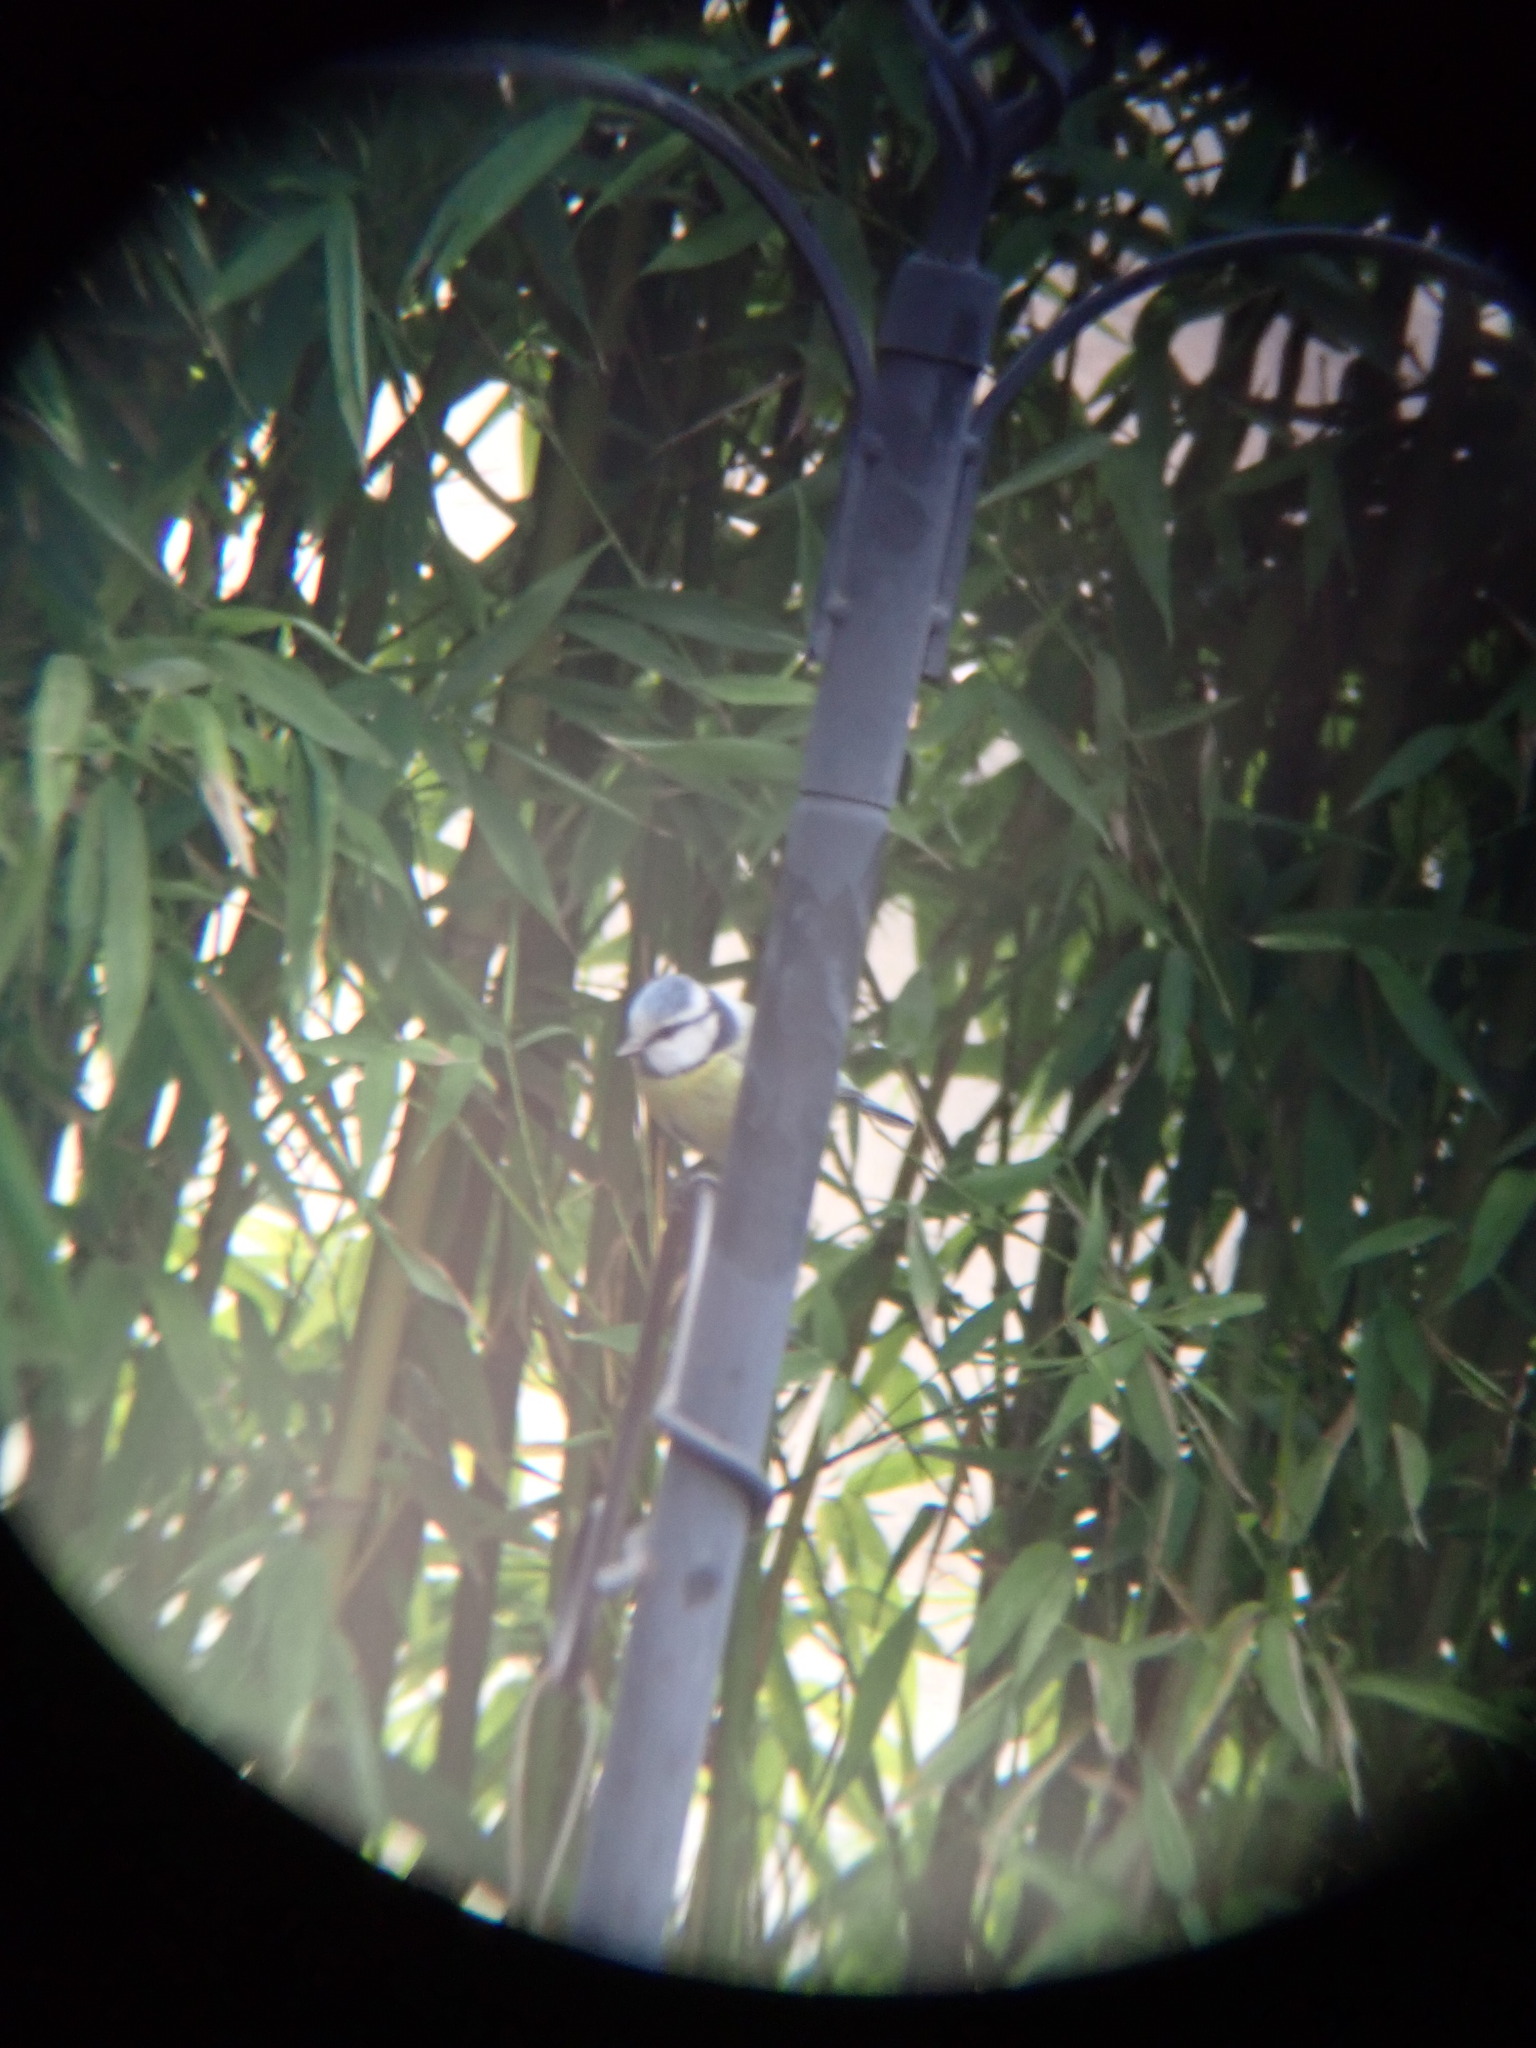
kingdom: Animalia
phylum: Chordata
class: Aves
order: Passeriformes
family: Paridae
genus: Cyanistes
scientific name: Cyanistes caeruleus
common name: Eurasian blue tit
